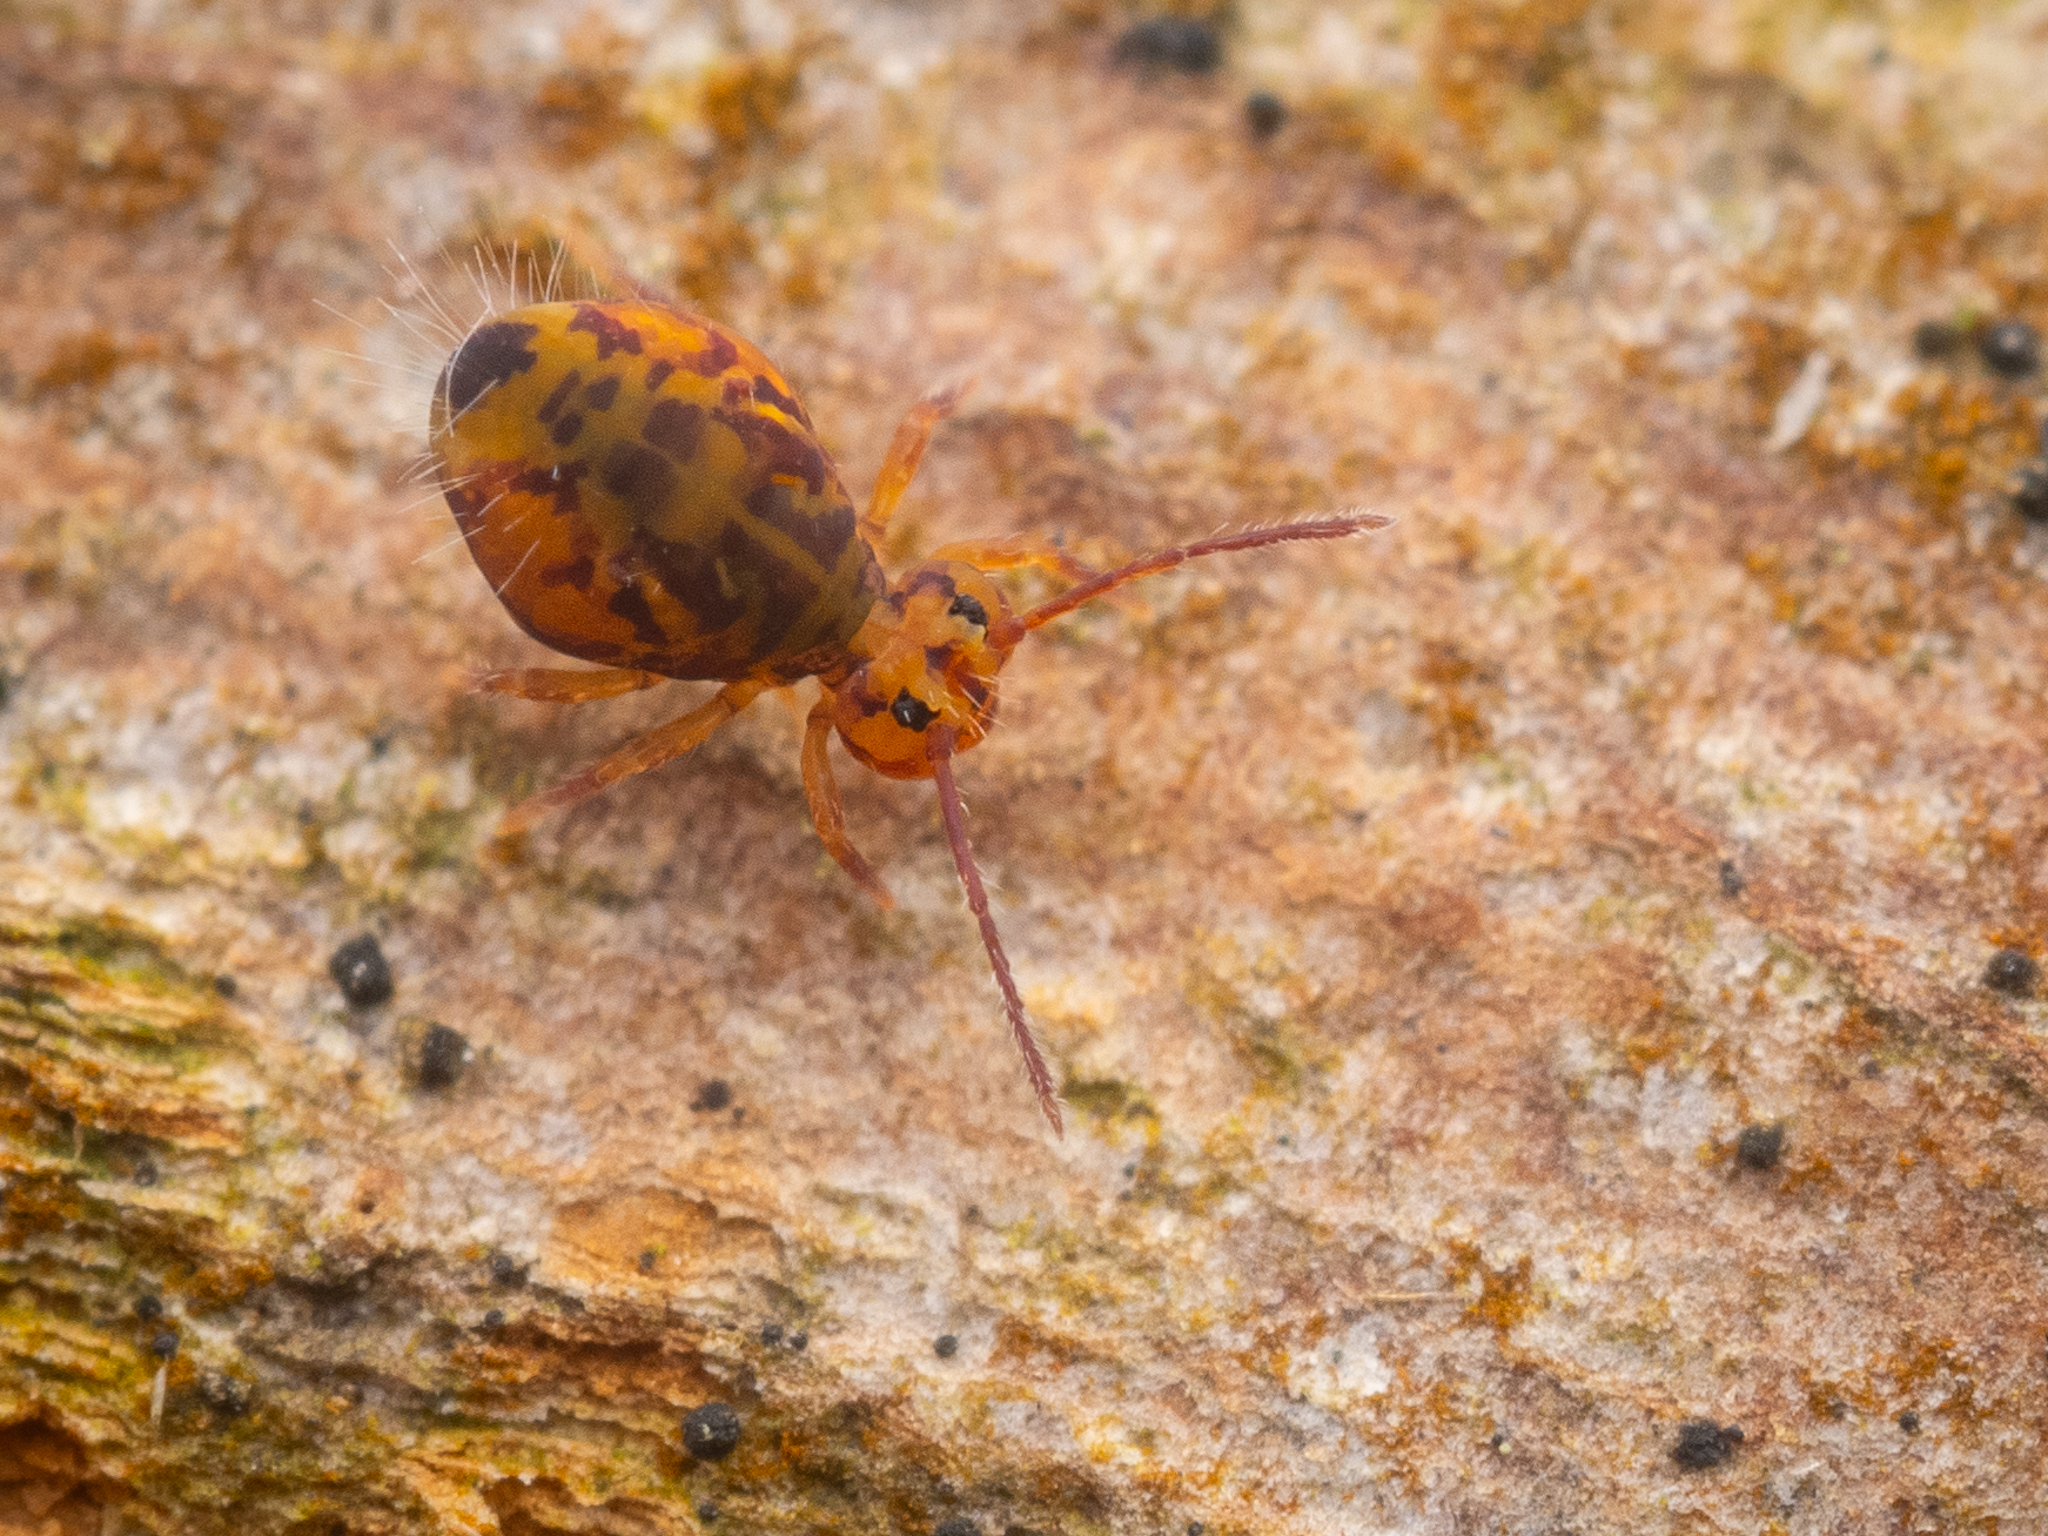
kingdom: Animalia
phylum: Arthropoda
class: Collembola
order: Symphypleona
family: Dicyrtomidae
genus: Dicyrtomina
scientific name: Dicyrtomina ornata
